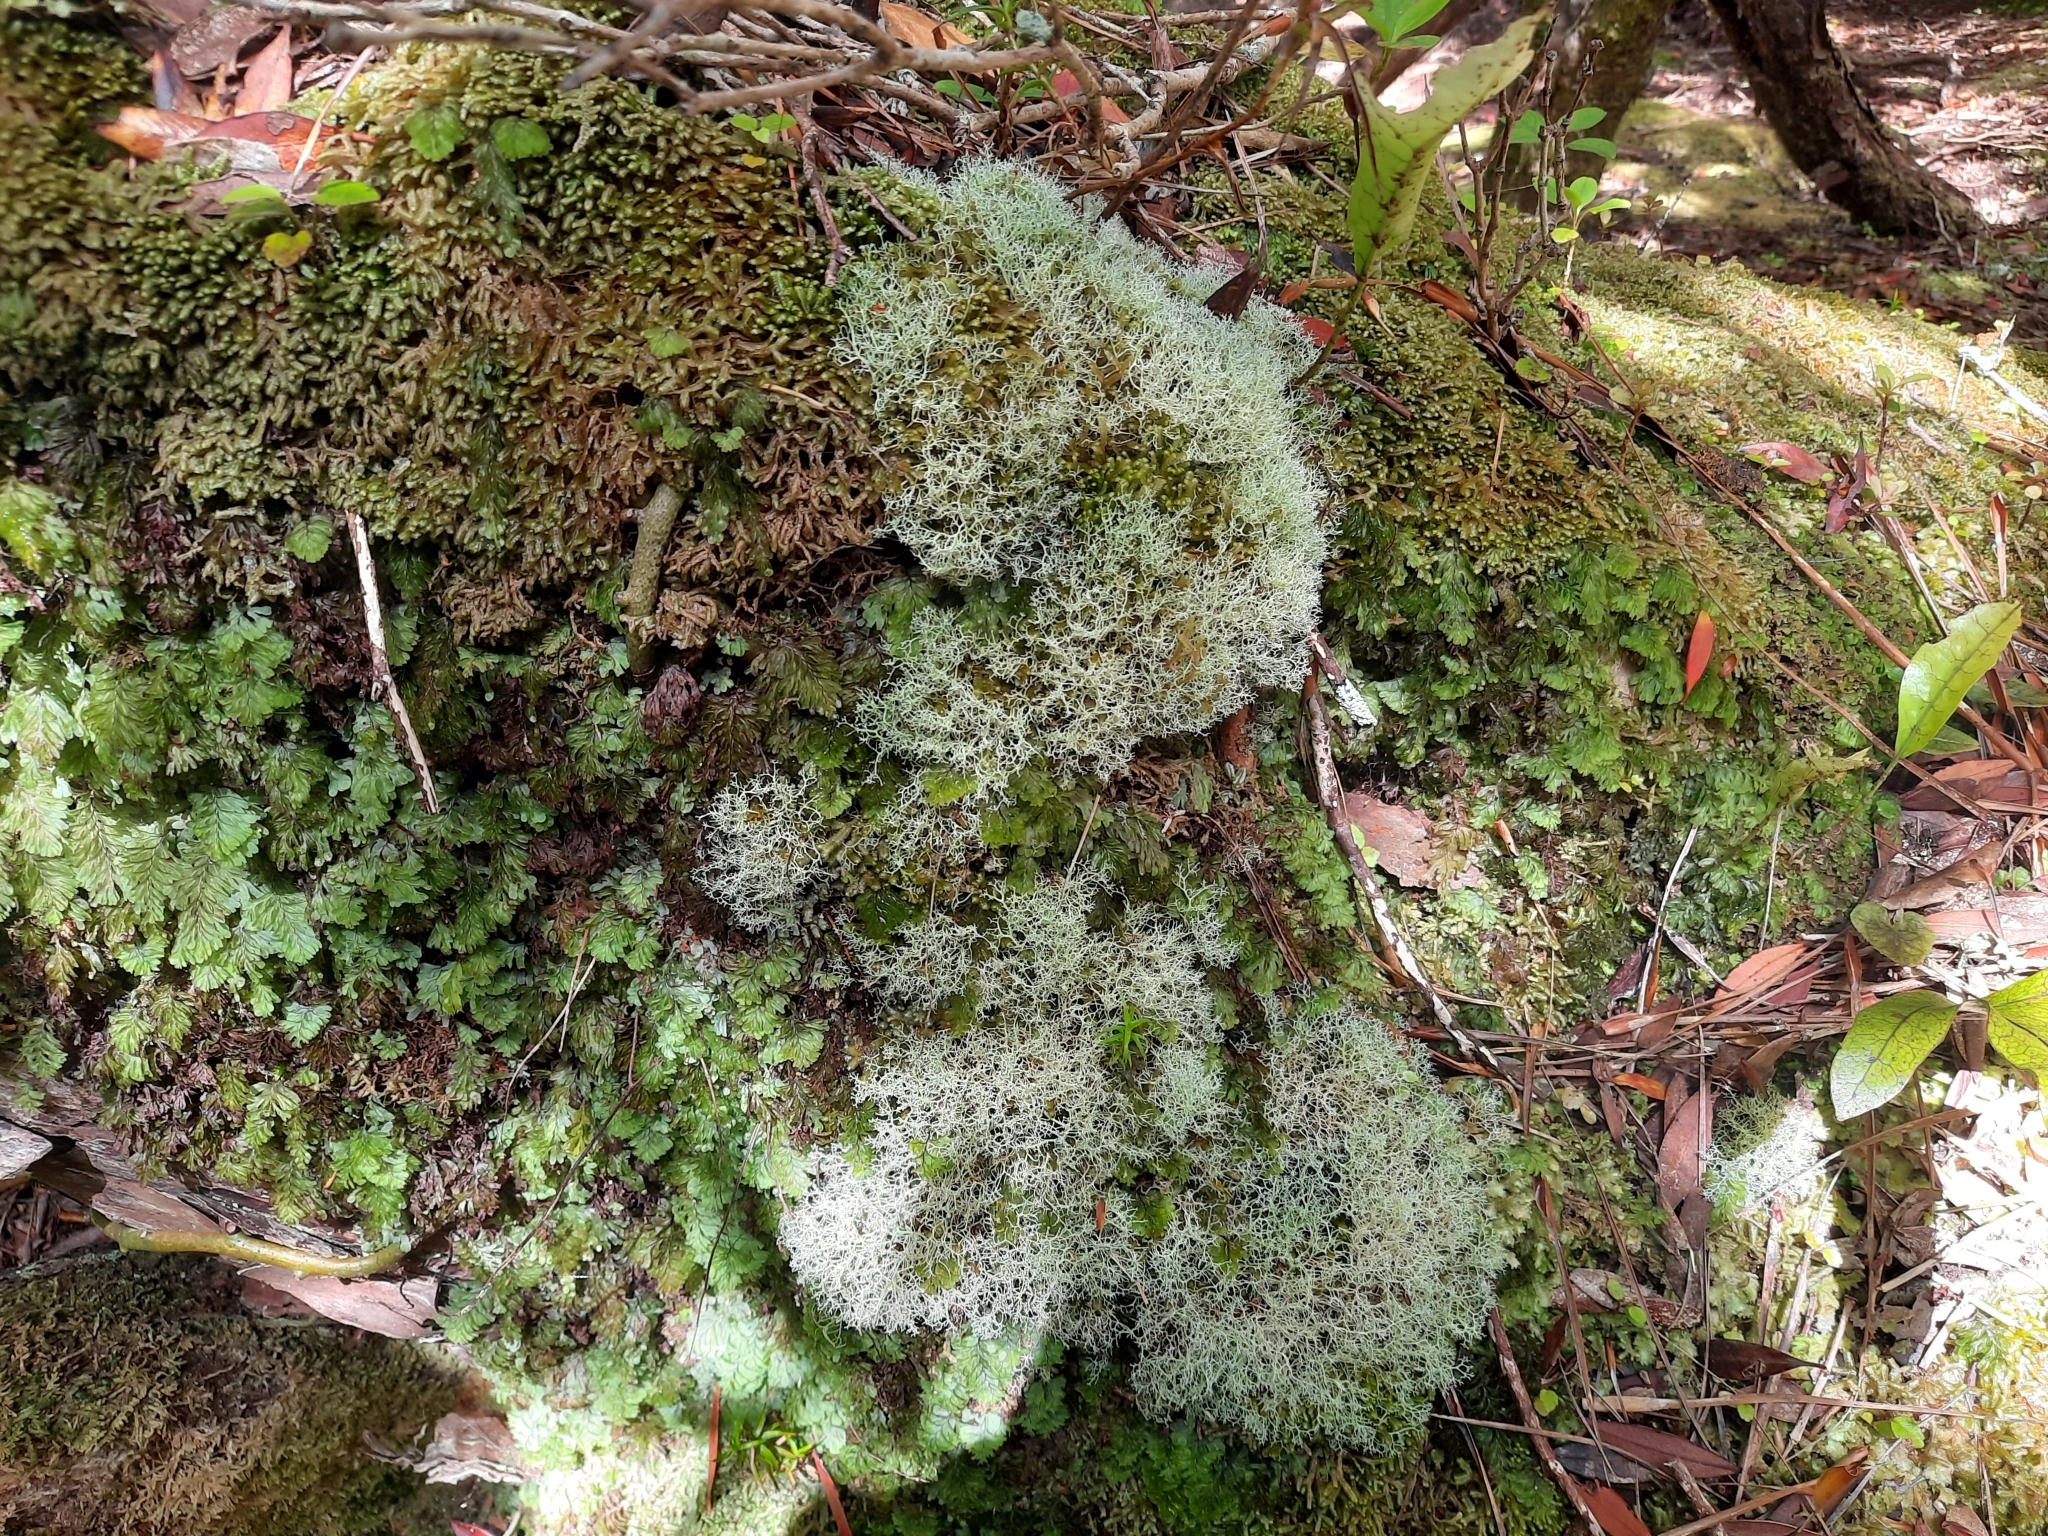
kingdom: Fungi
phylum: Ascomycota
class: Lecanoromycetes
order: Lecanorales
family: Sphaerophoraceae
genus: Leifidium
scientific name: Leifidium tenerum
